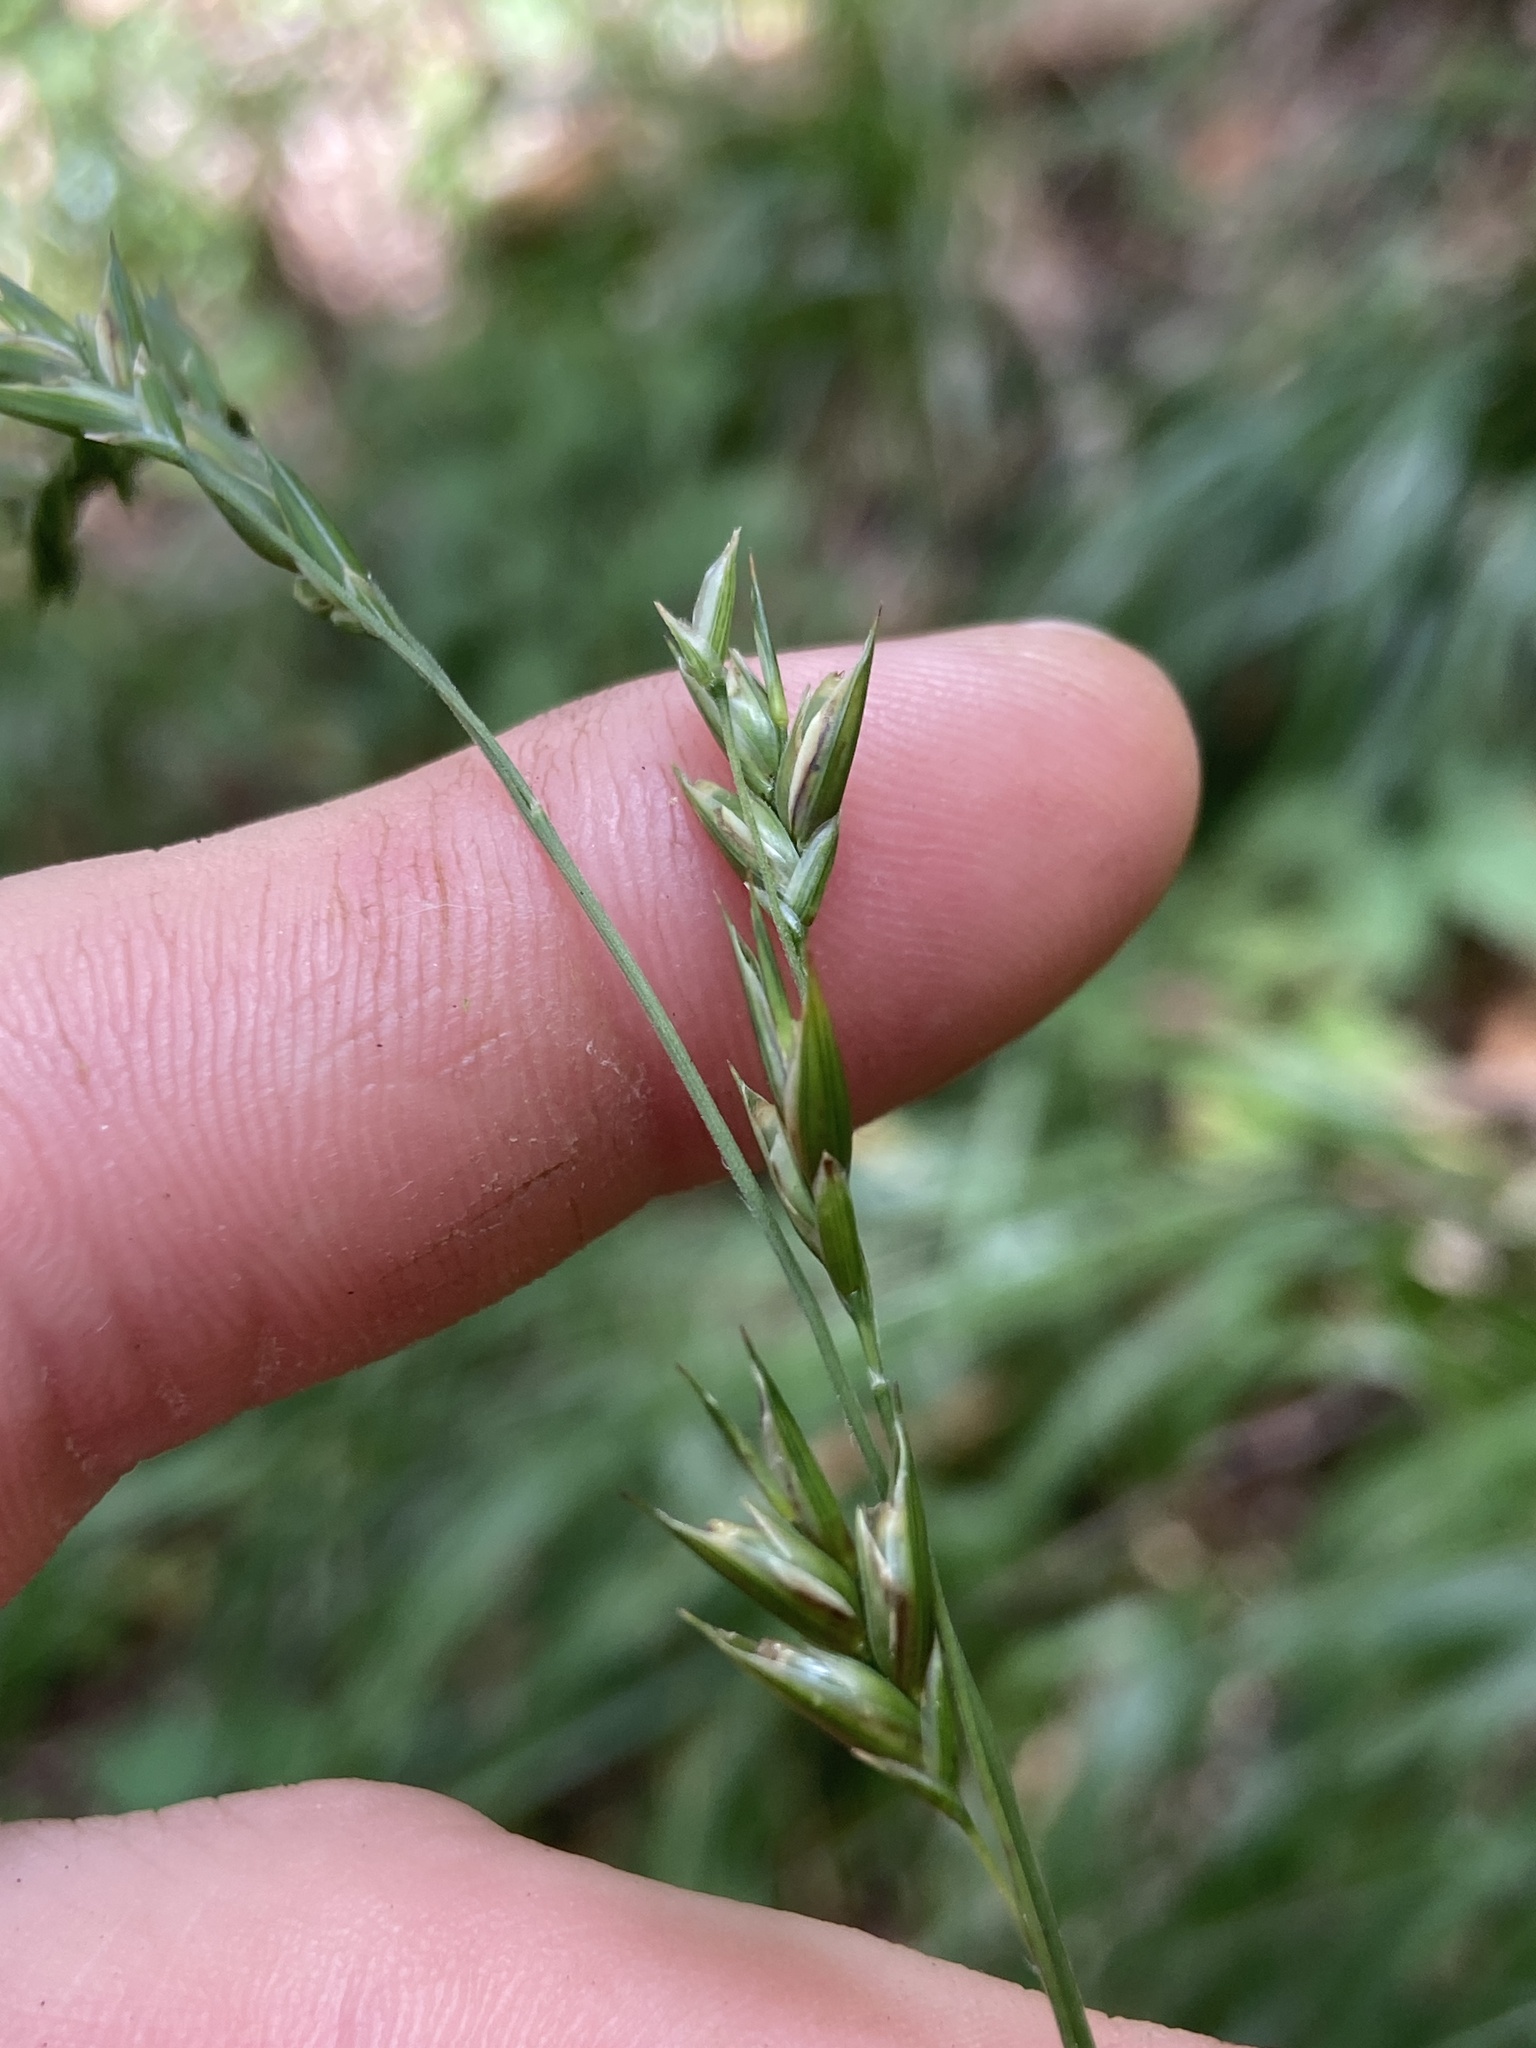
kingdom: Plantae
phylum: Tracheophyta
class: Liliopsida
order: Poales
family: Poaceae
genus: Diarrhena
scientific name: Diarrhena americana
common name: American beakgrain
